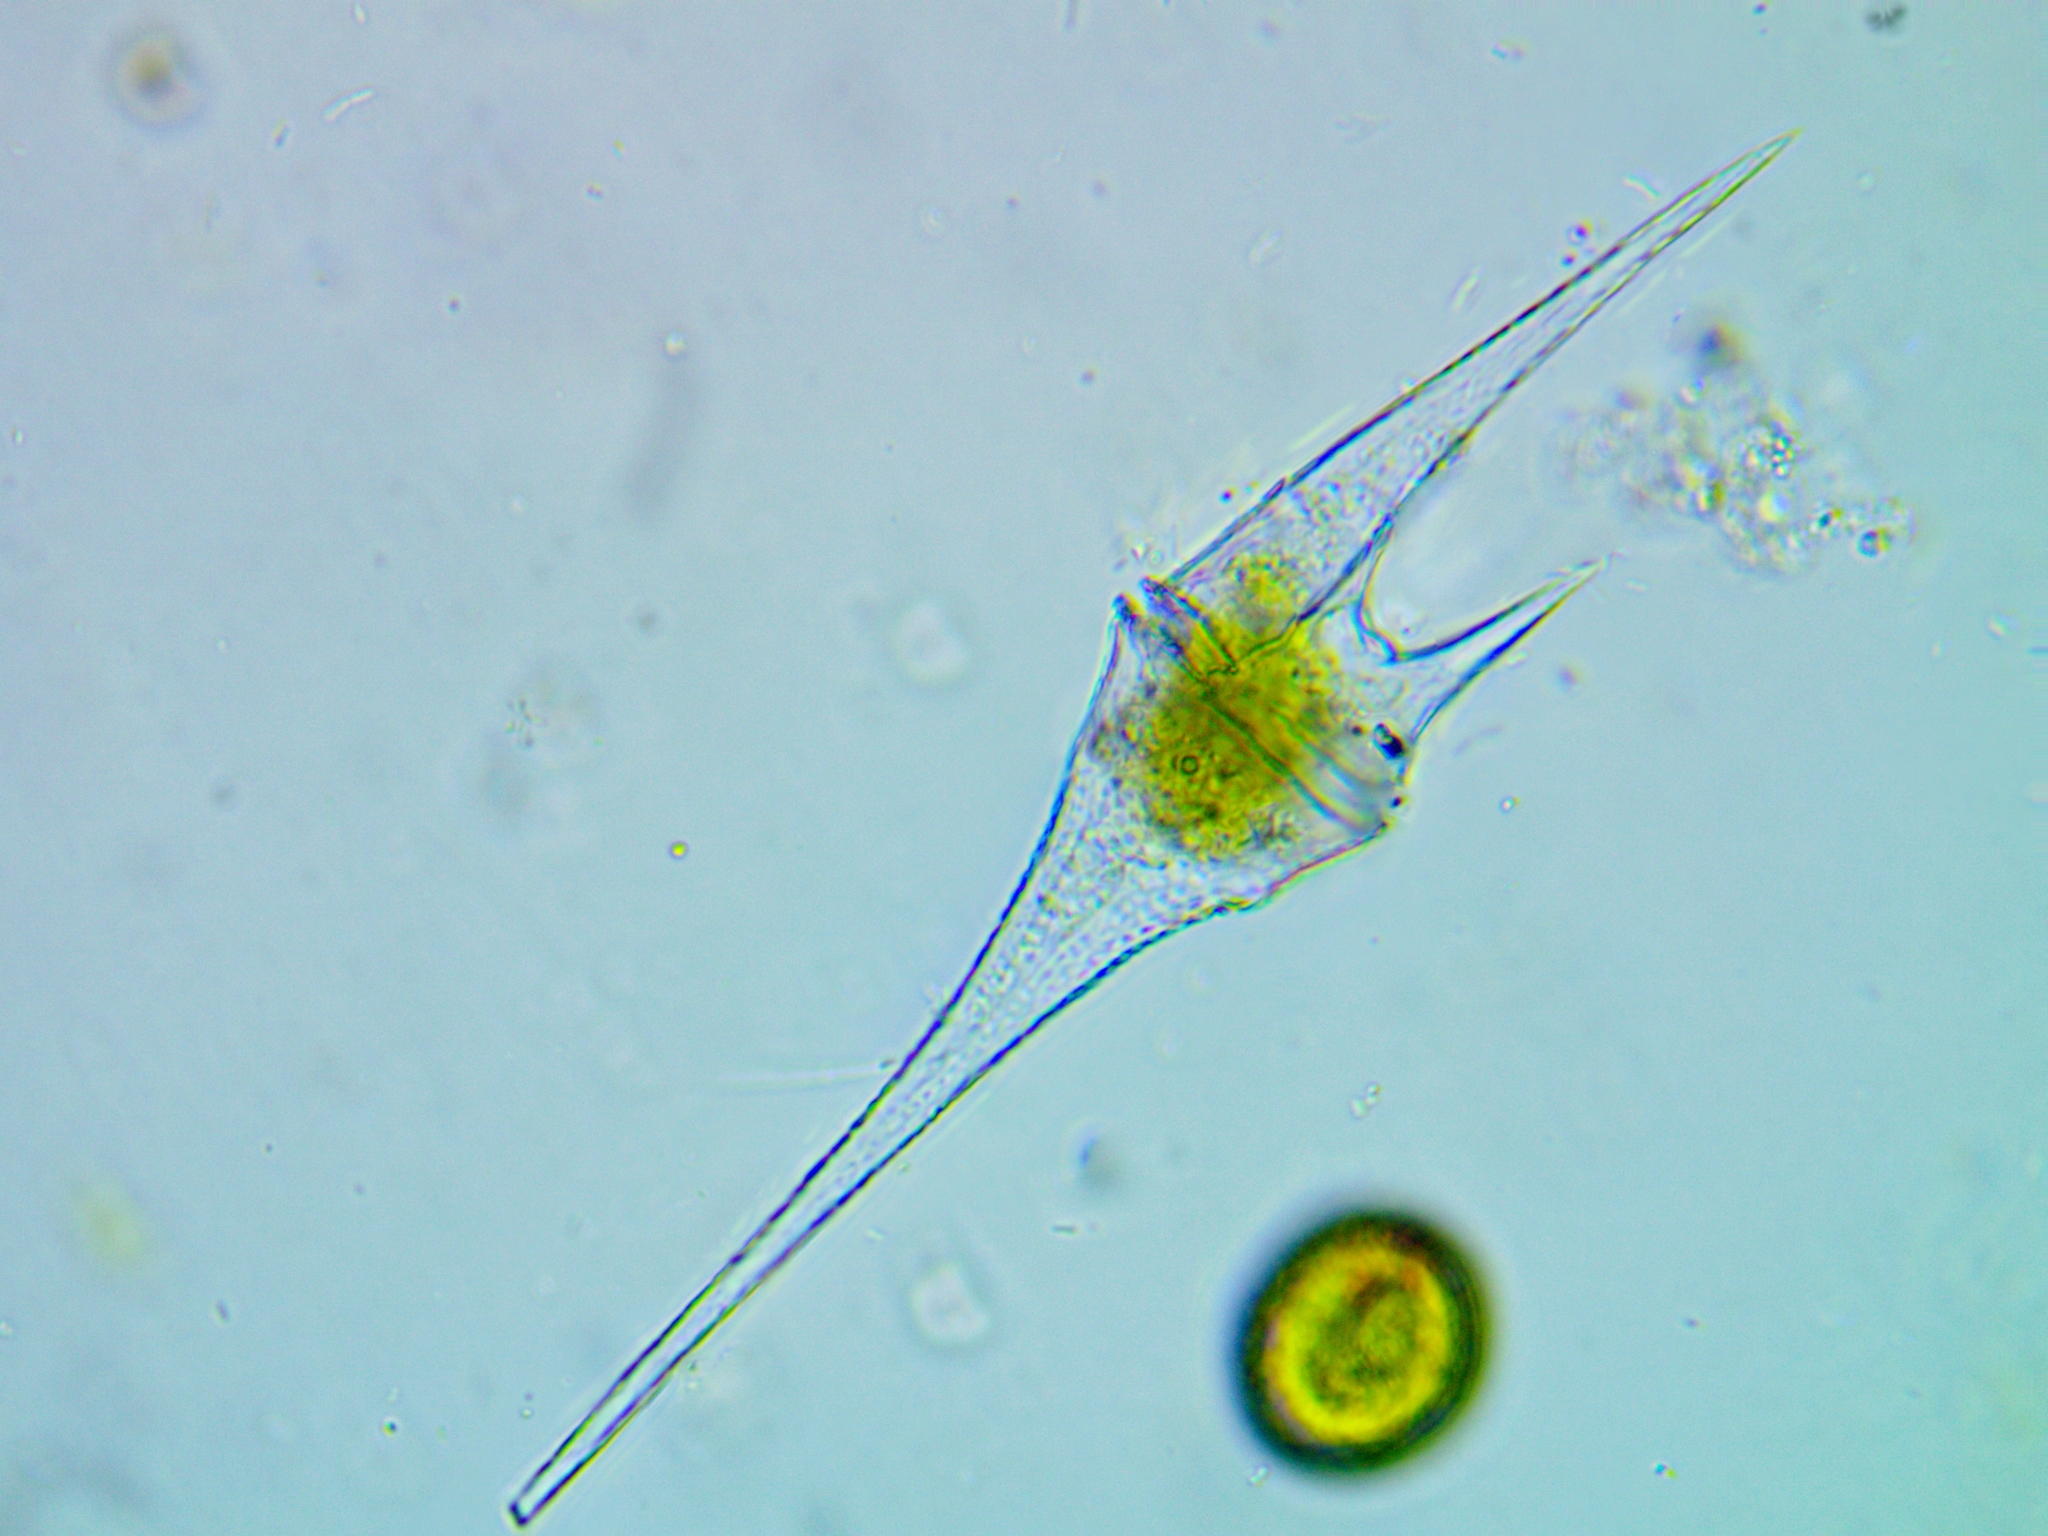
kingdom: Chromista
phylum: Myzozoa
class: Dinophyceae
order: Gonyaulacales
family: Ceratiaceae
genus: Ceratium
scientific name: Ceratium furcoides
